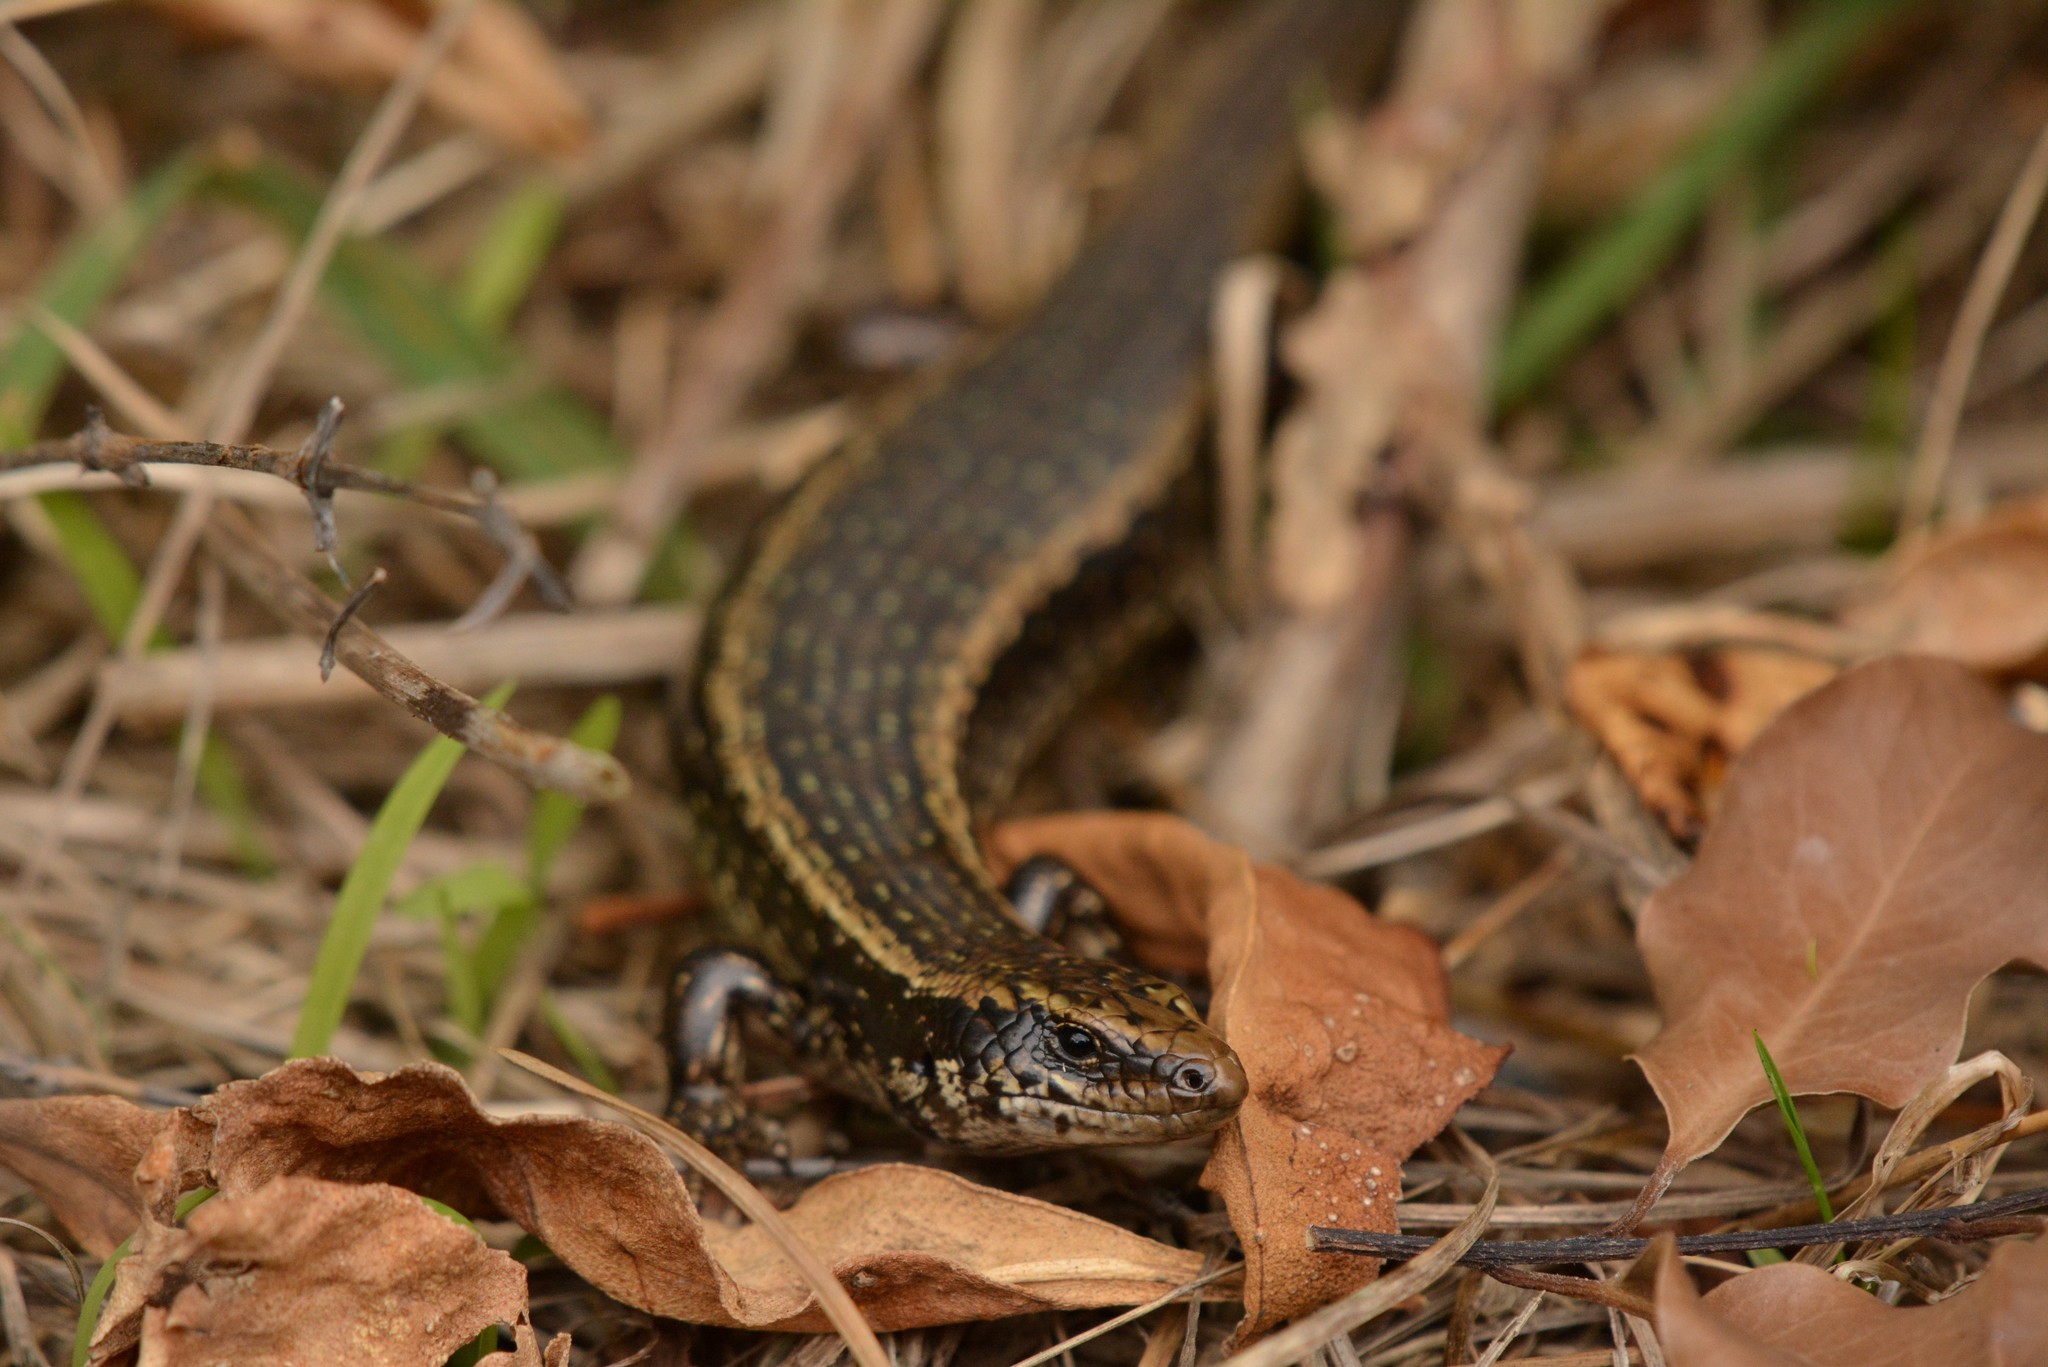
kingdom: Animalia
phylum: Chordata
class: Squamata
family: Scincidae
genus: Oligosoma
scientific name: Oligosoma kokowai
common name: Northern spotted skink
